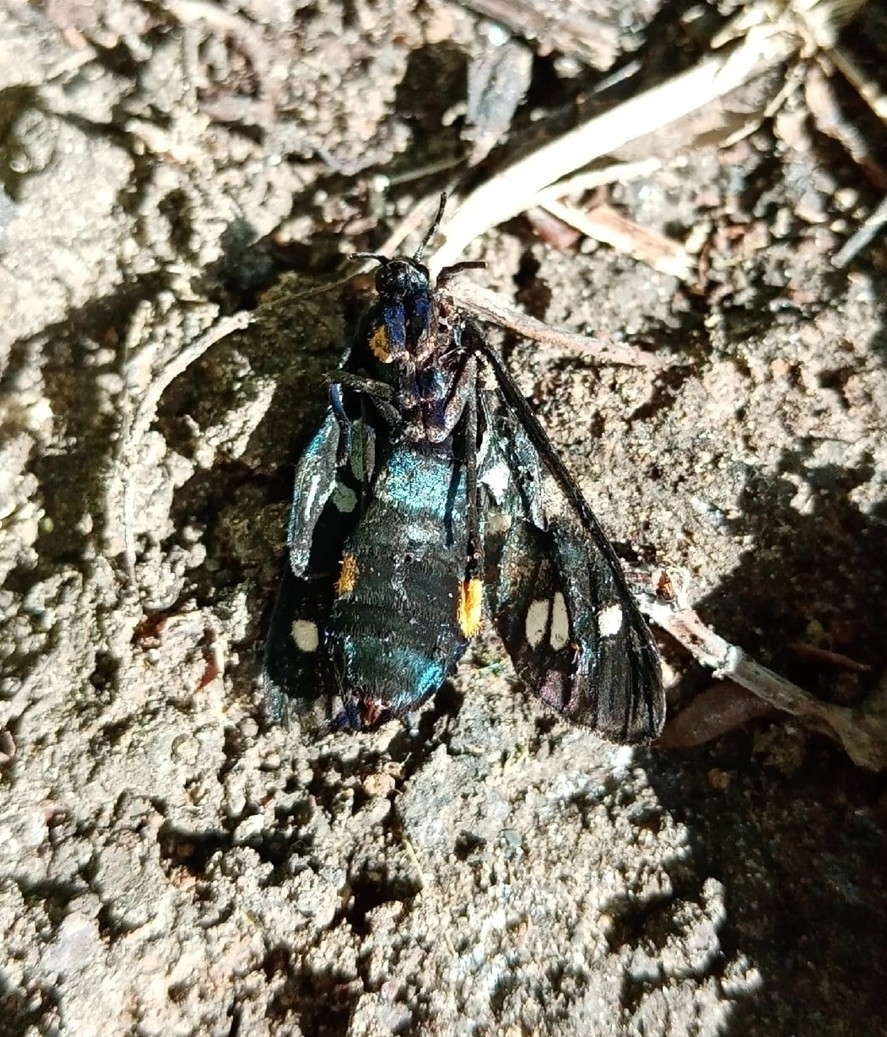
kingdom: Animalia
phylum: Arthropoda
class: Insecta
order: Lepidoptera
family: Erebidae
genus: Amata
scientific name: Amata nigricornis
